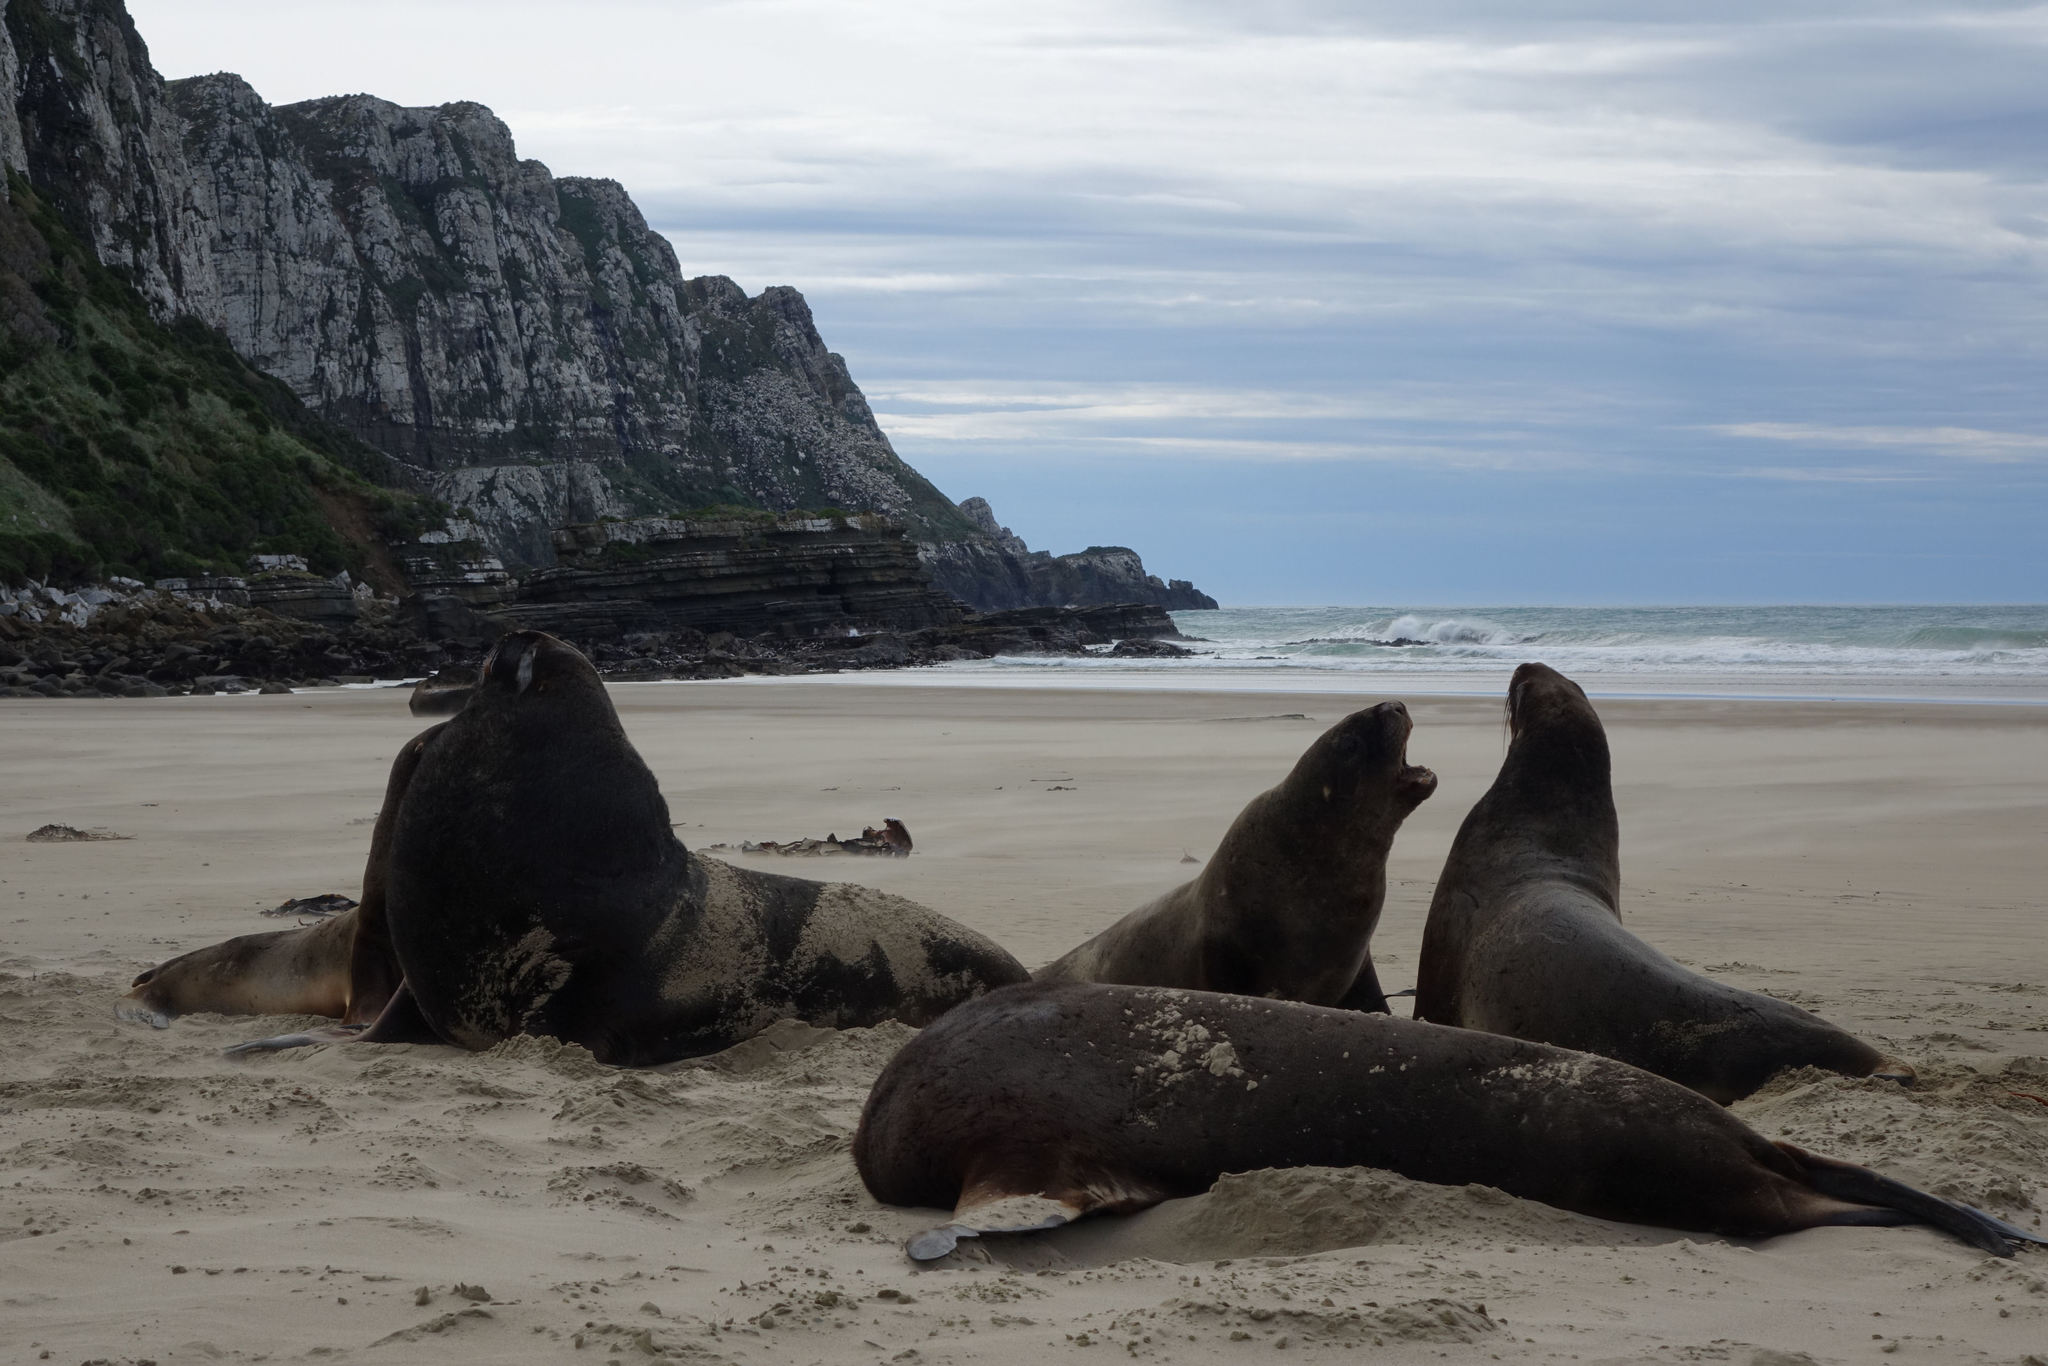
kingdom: Animalia
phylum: Chordata
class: Mammalia
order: Carnivora
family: Otariidae
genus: Phocarctos
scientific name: Phocarctos hookeri
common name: New zealand sea lion
